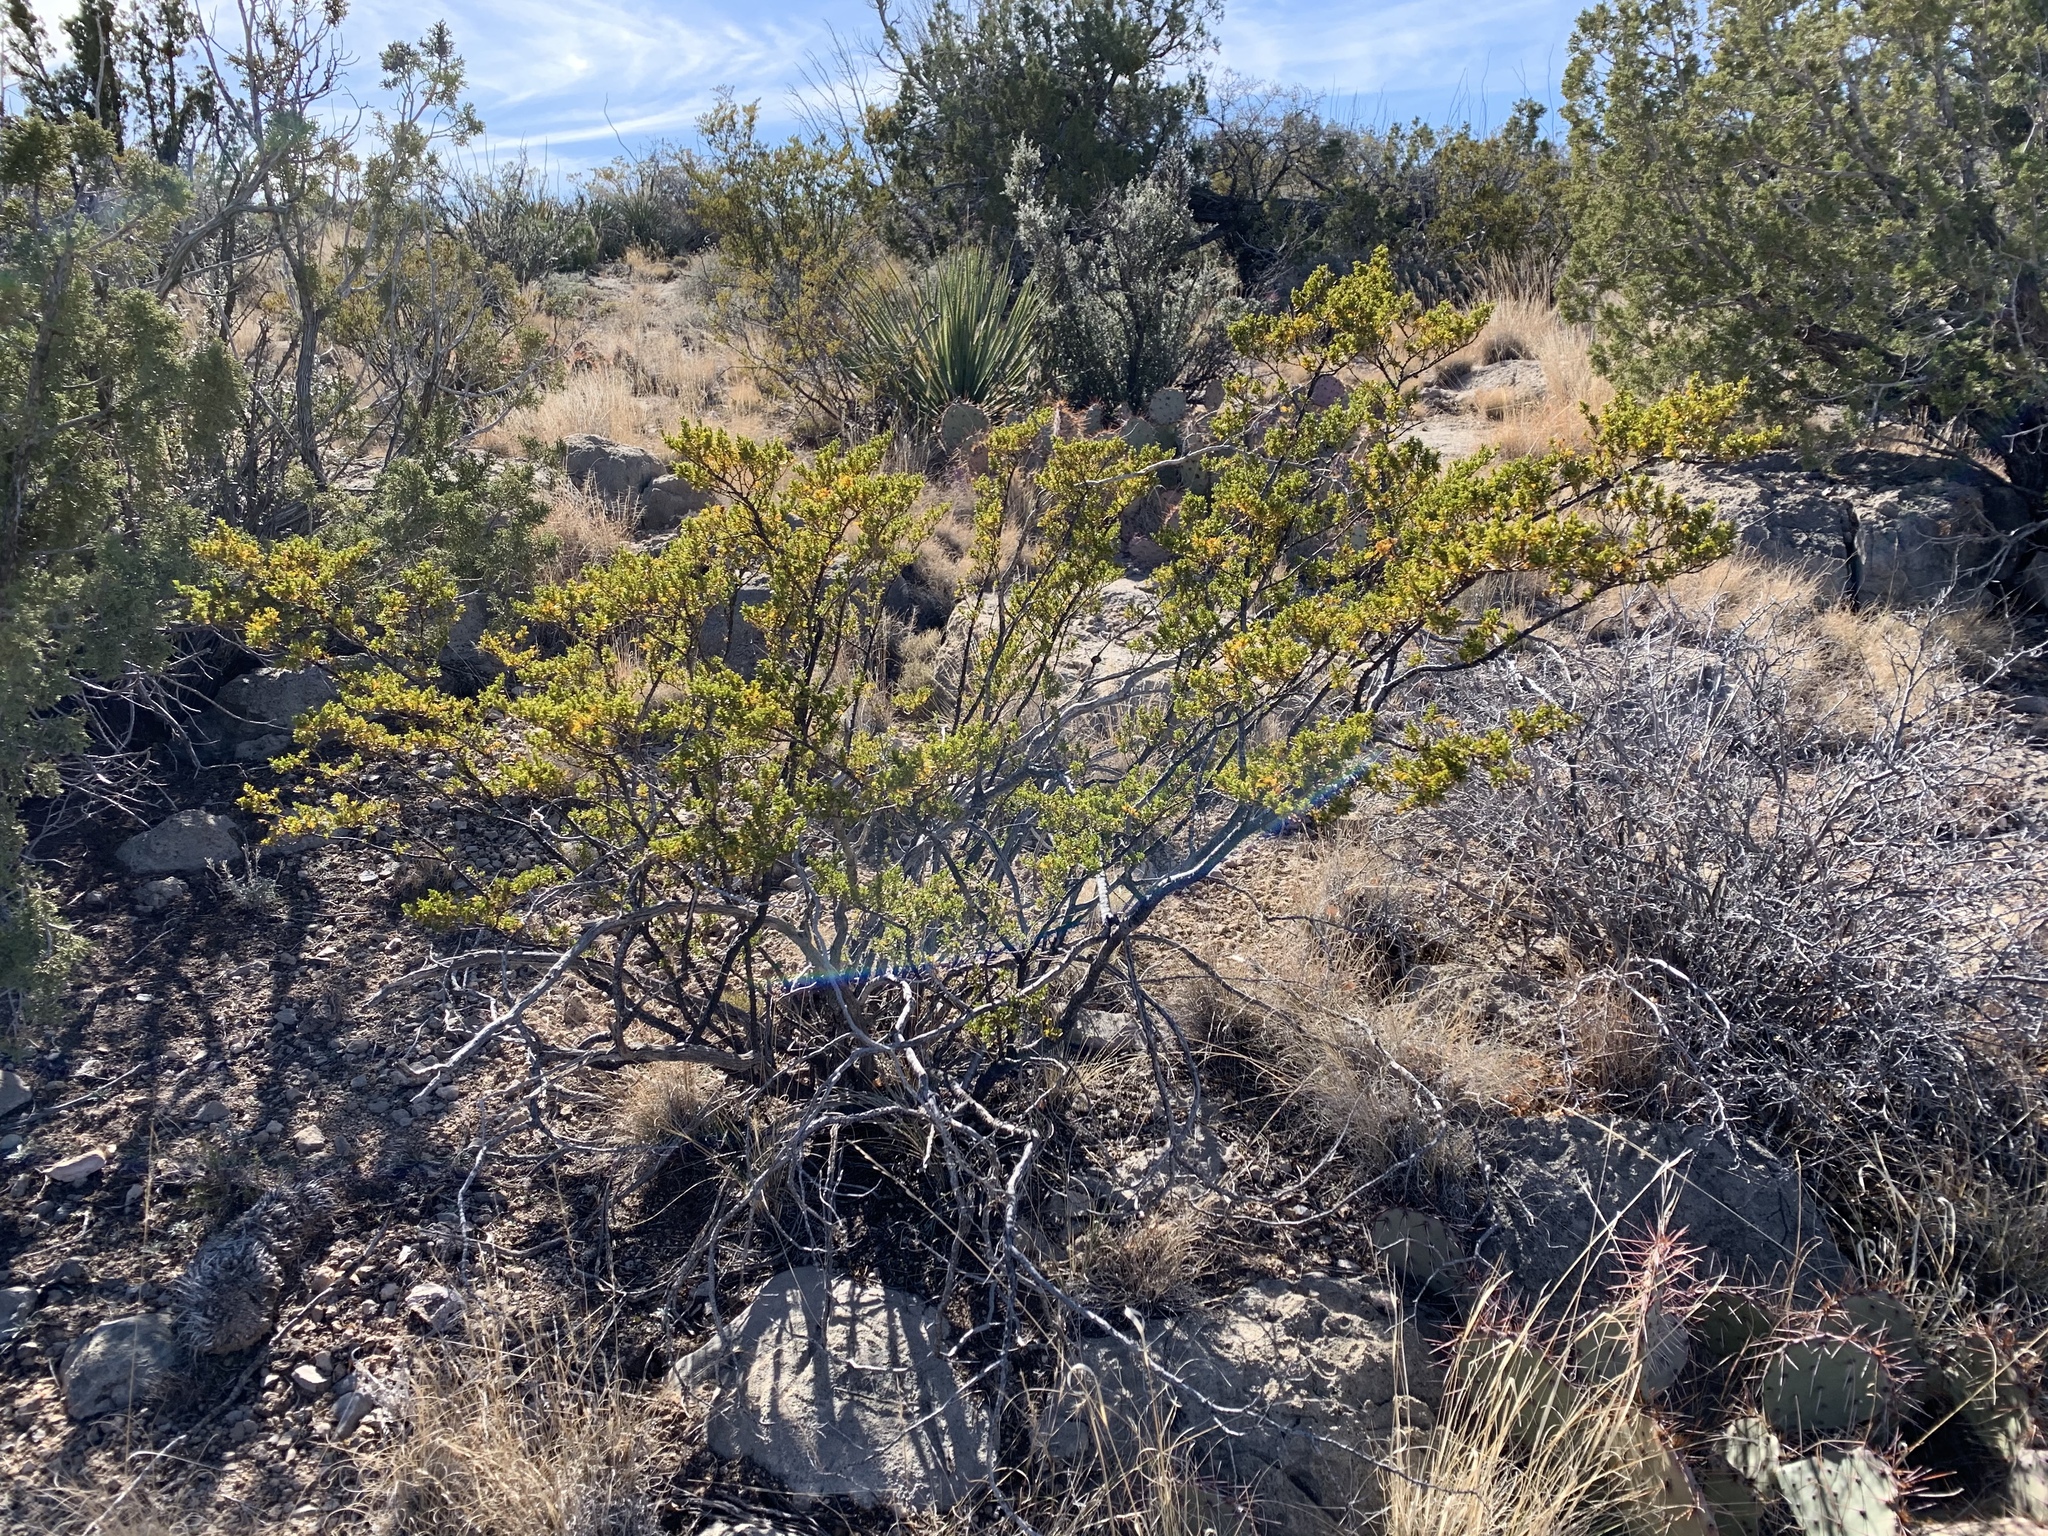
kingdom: Plantae
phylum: Tracheophyta
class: Magnoliopsida
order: Zygophyllales
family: Zygophyllaceae
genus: Larrea
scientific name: Larrea tridentata
